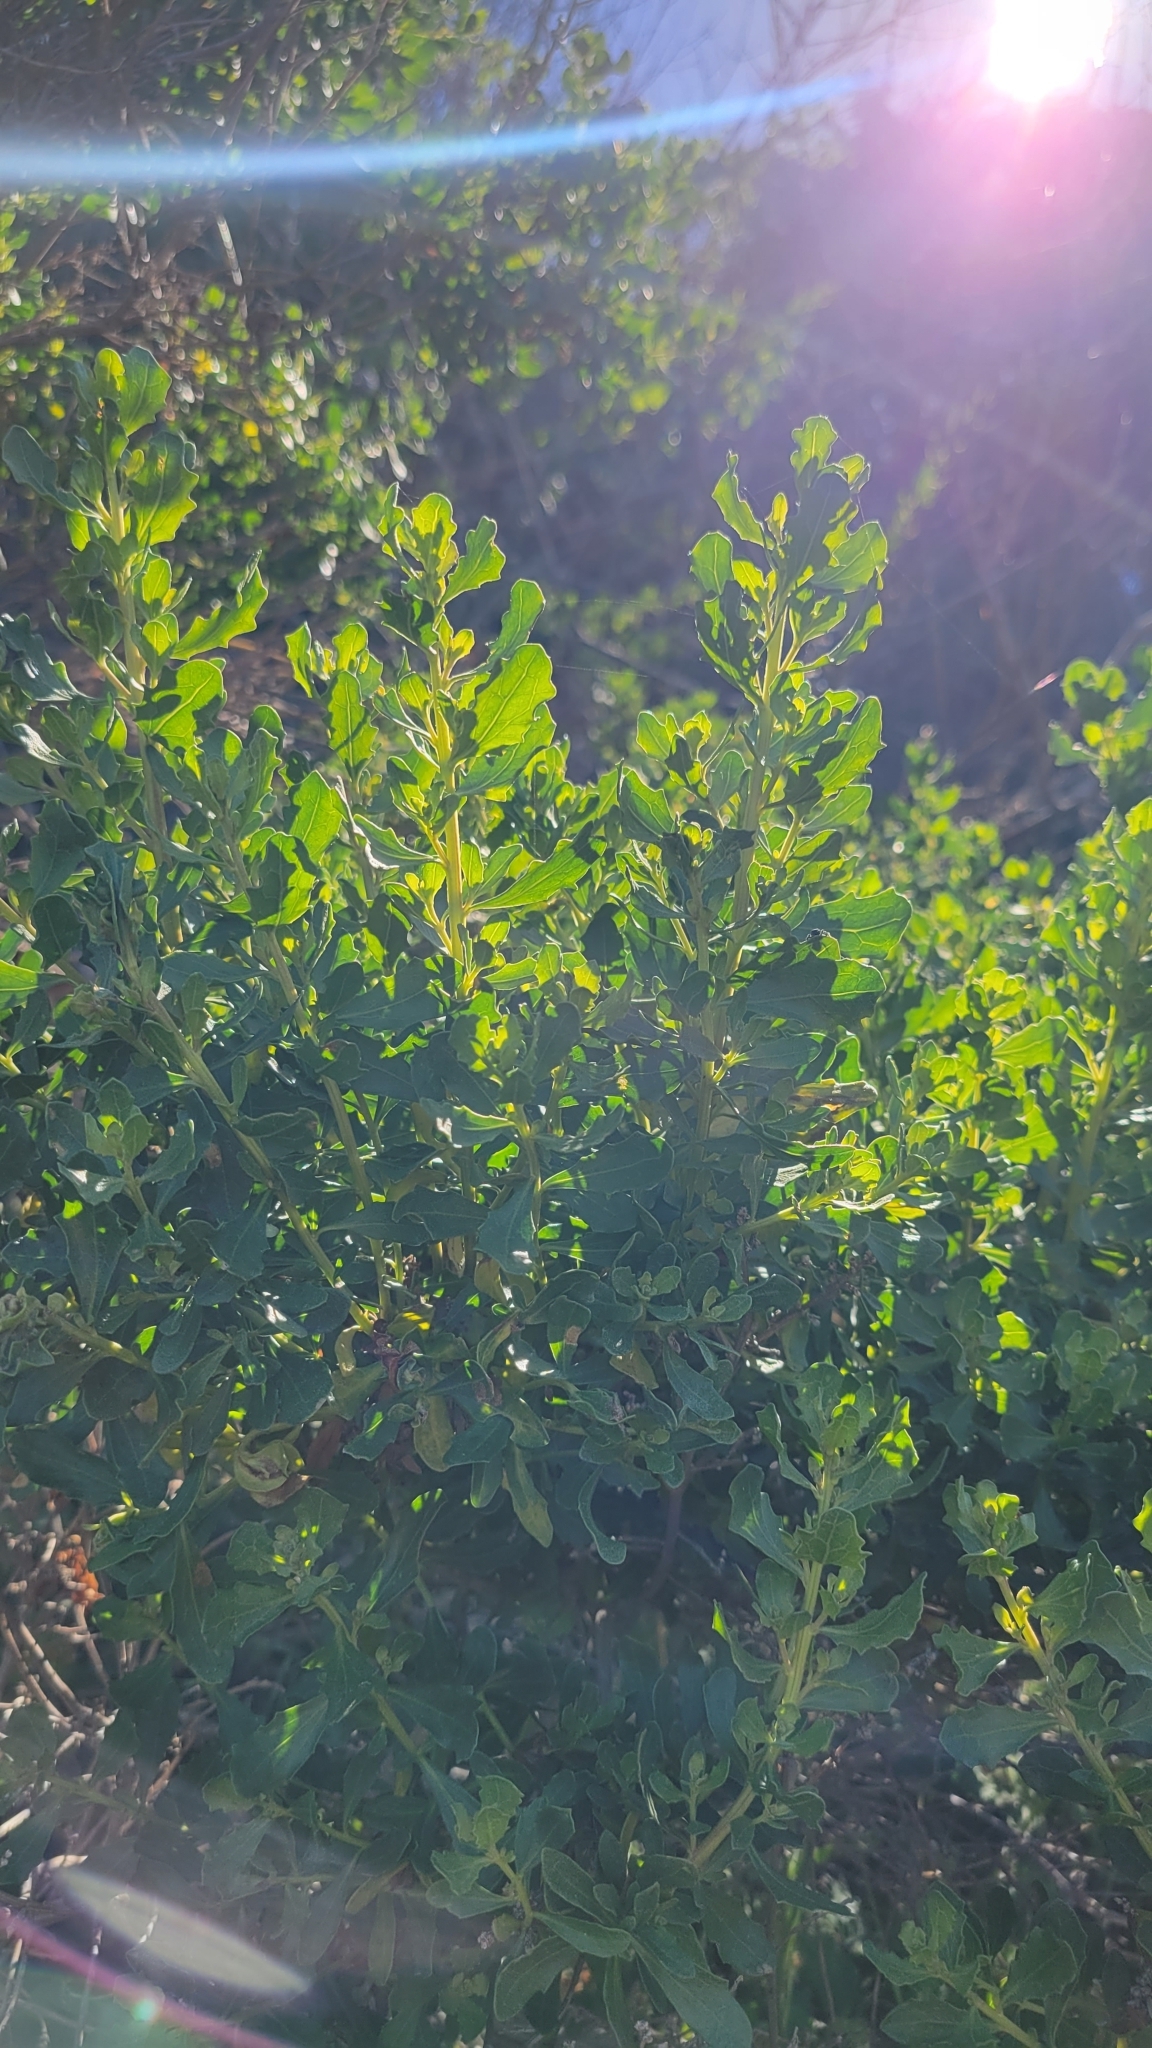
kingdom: Plantae
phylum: Tracheophyta
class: Magnoliopsida
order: Asterales
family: Asteraceae
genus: Baccharis
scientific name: Baccharis pilularis
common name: Coyotebrush
